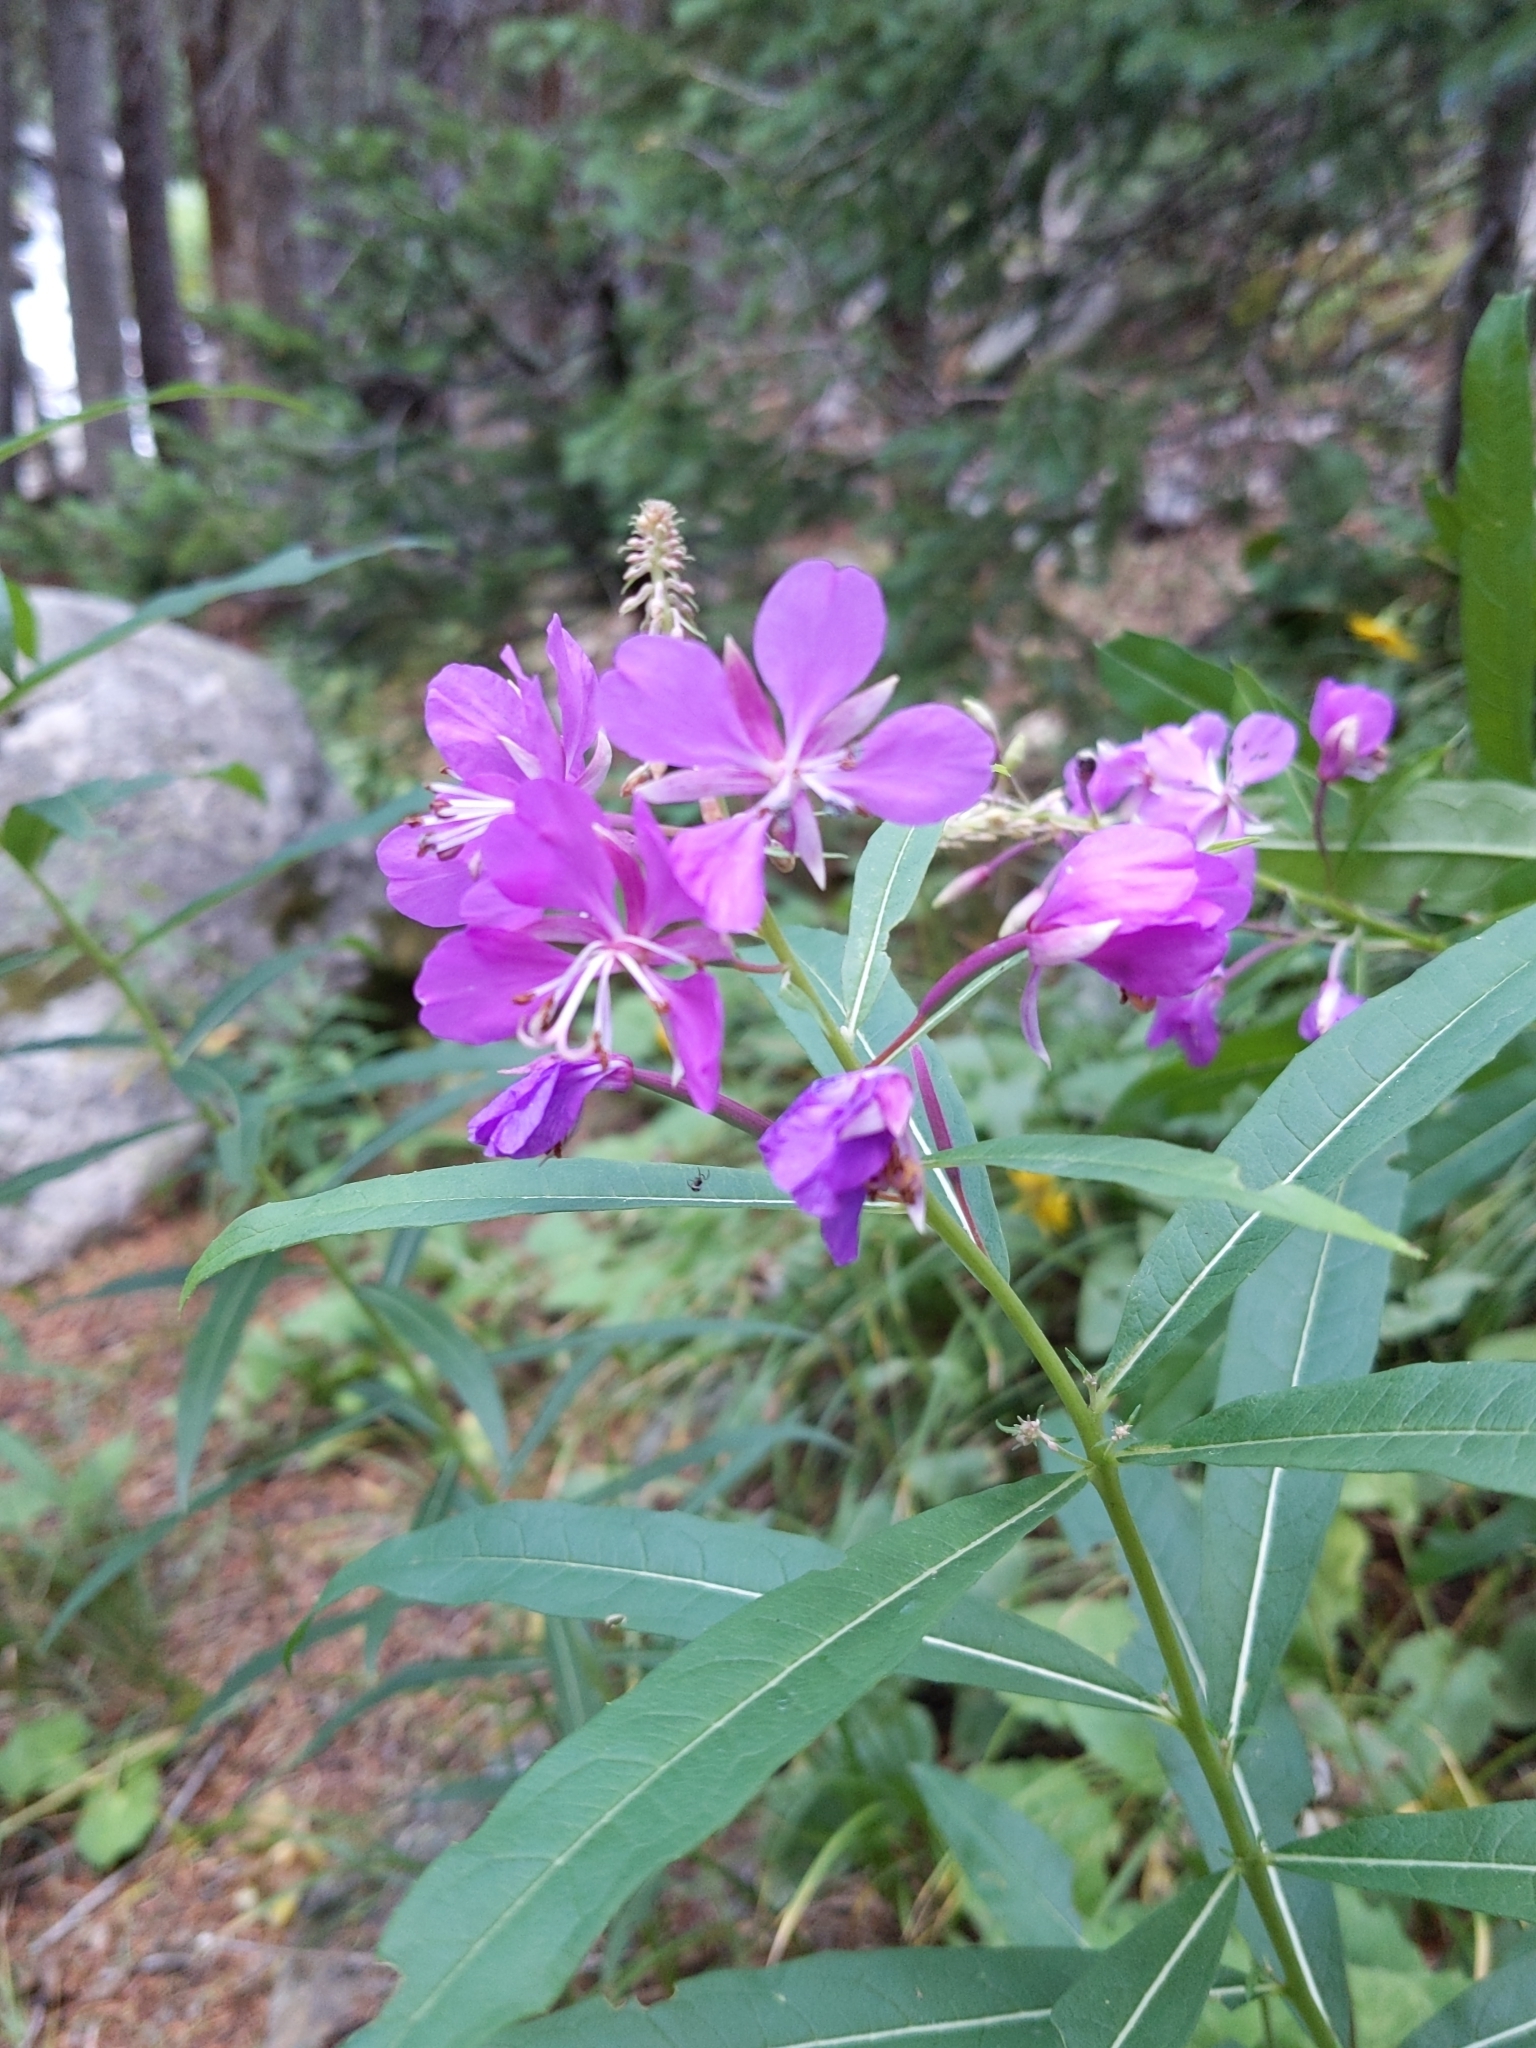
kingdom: Plantae
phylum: Tracheophyta
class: Magnoliopsida
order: Myrtales
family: Onagraceae
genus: Chamaenerion
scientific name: Chamaenerion angustifolium
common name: Fireweed
